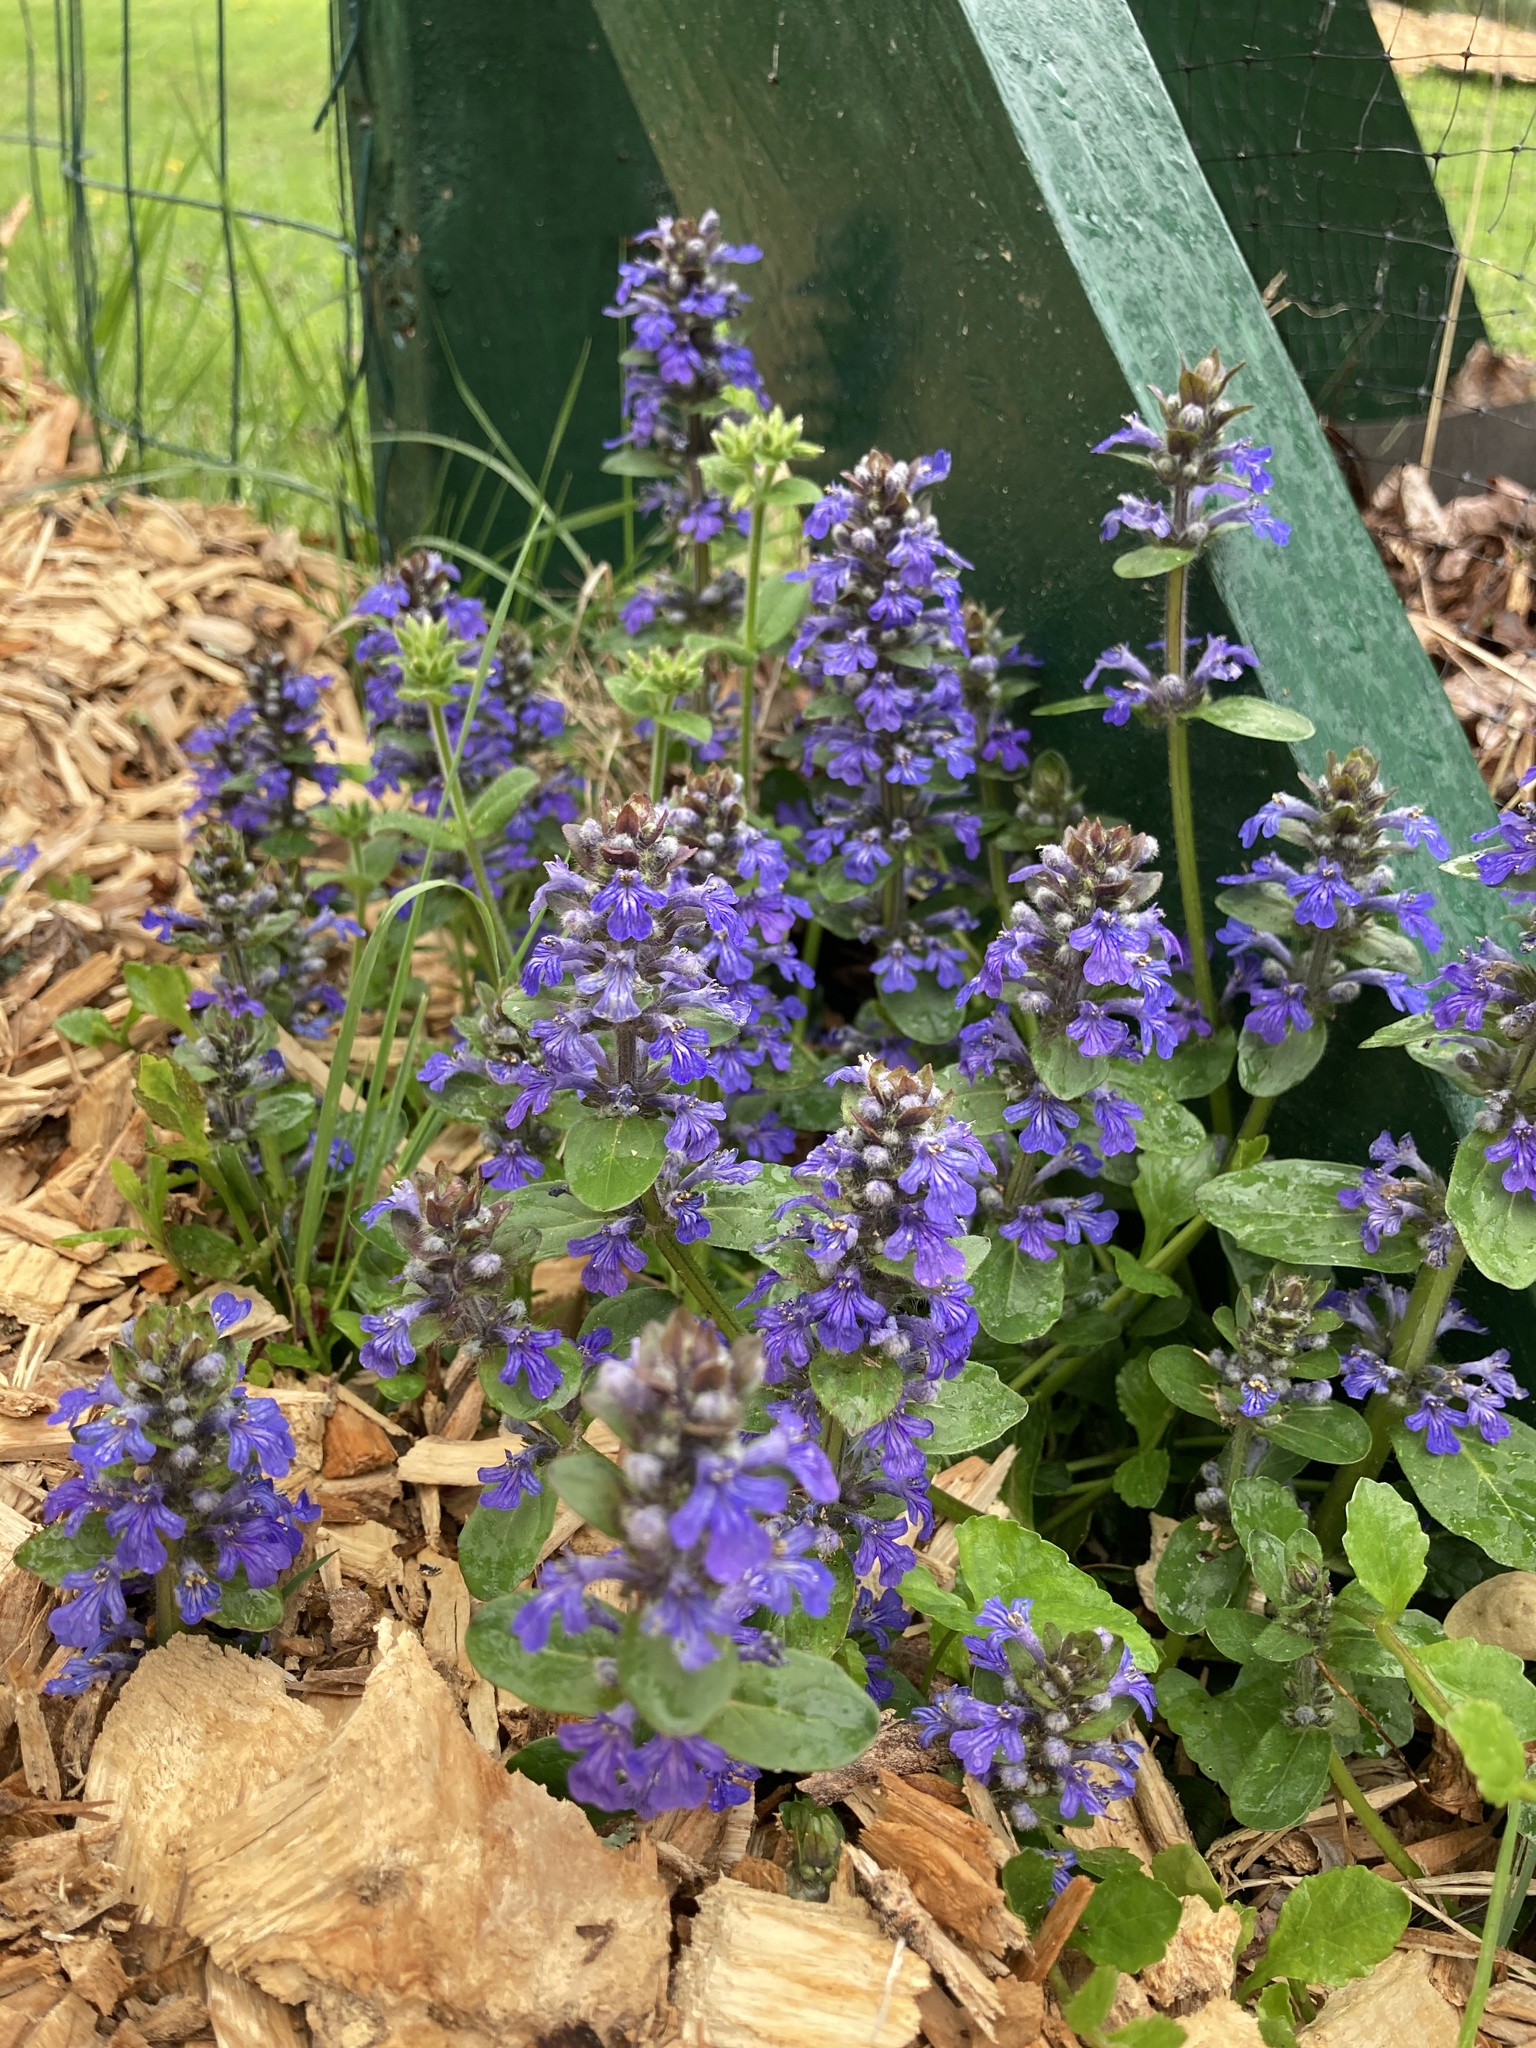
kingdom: Plantae
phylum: Tracheophyta
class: Magnoliopsida
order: Lamiales
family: Lamiaceae
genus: Ajuga
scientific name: Ajuga reptans
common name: Bugle
